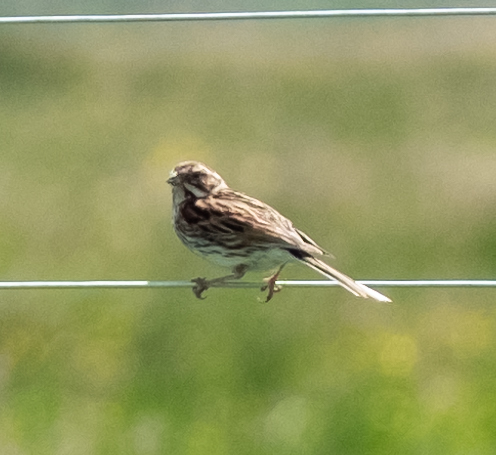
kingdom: Animalia
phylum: Chordata
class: Aves
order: Passeriformes
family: Emberizidae
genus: Emberiza
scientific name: Emberiza schoeniclus
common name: Reed bunting
